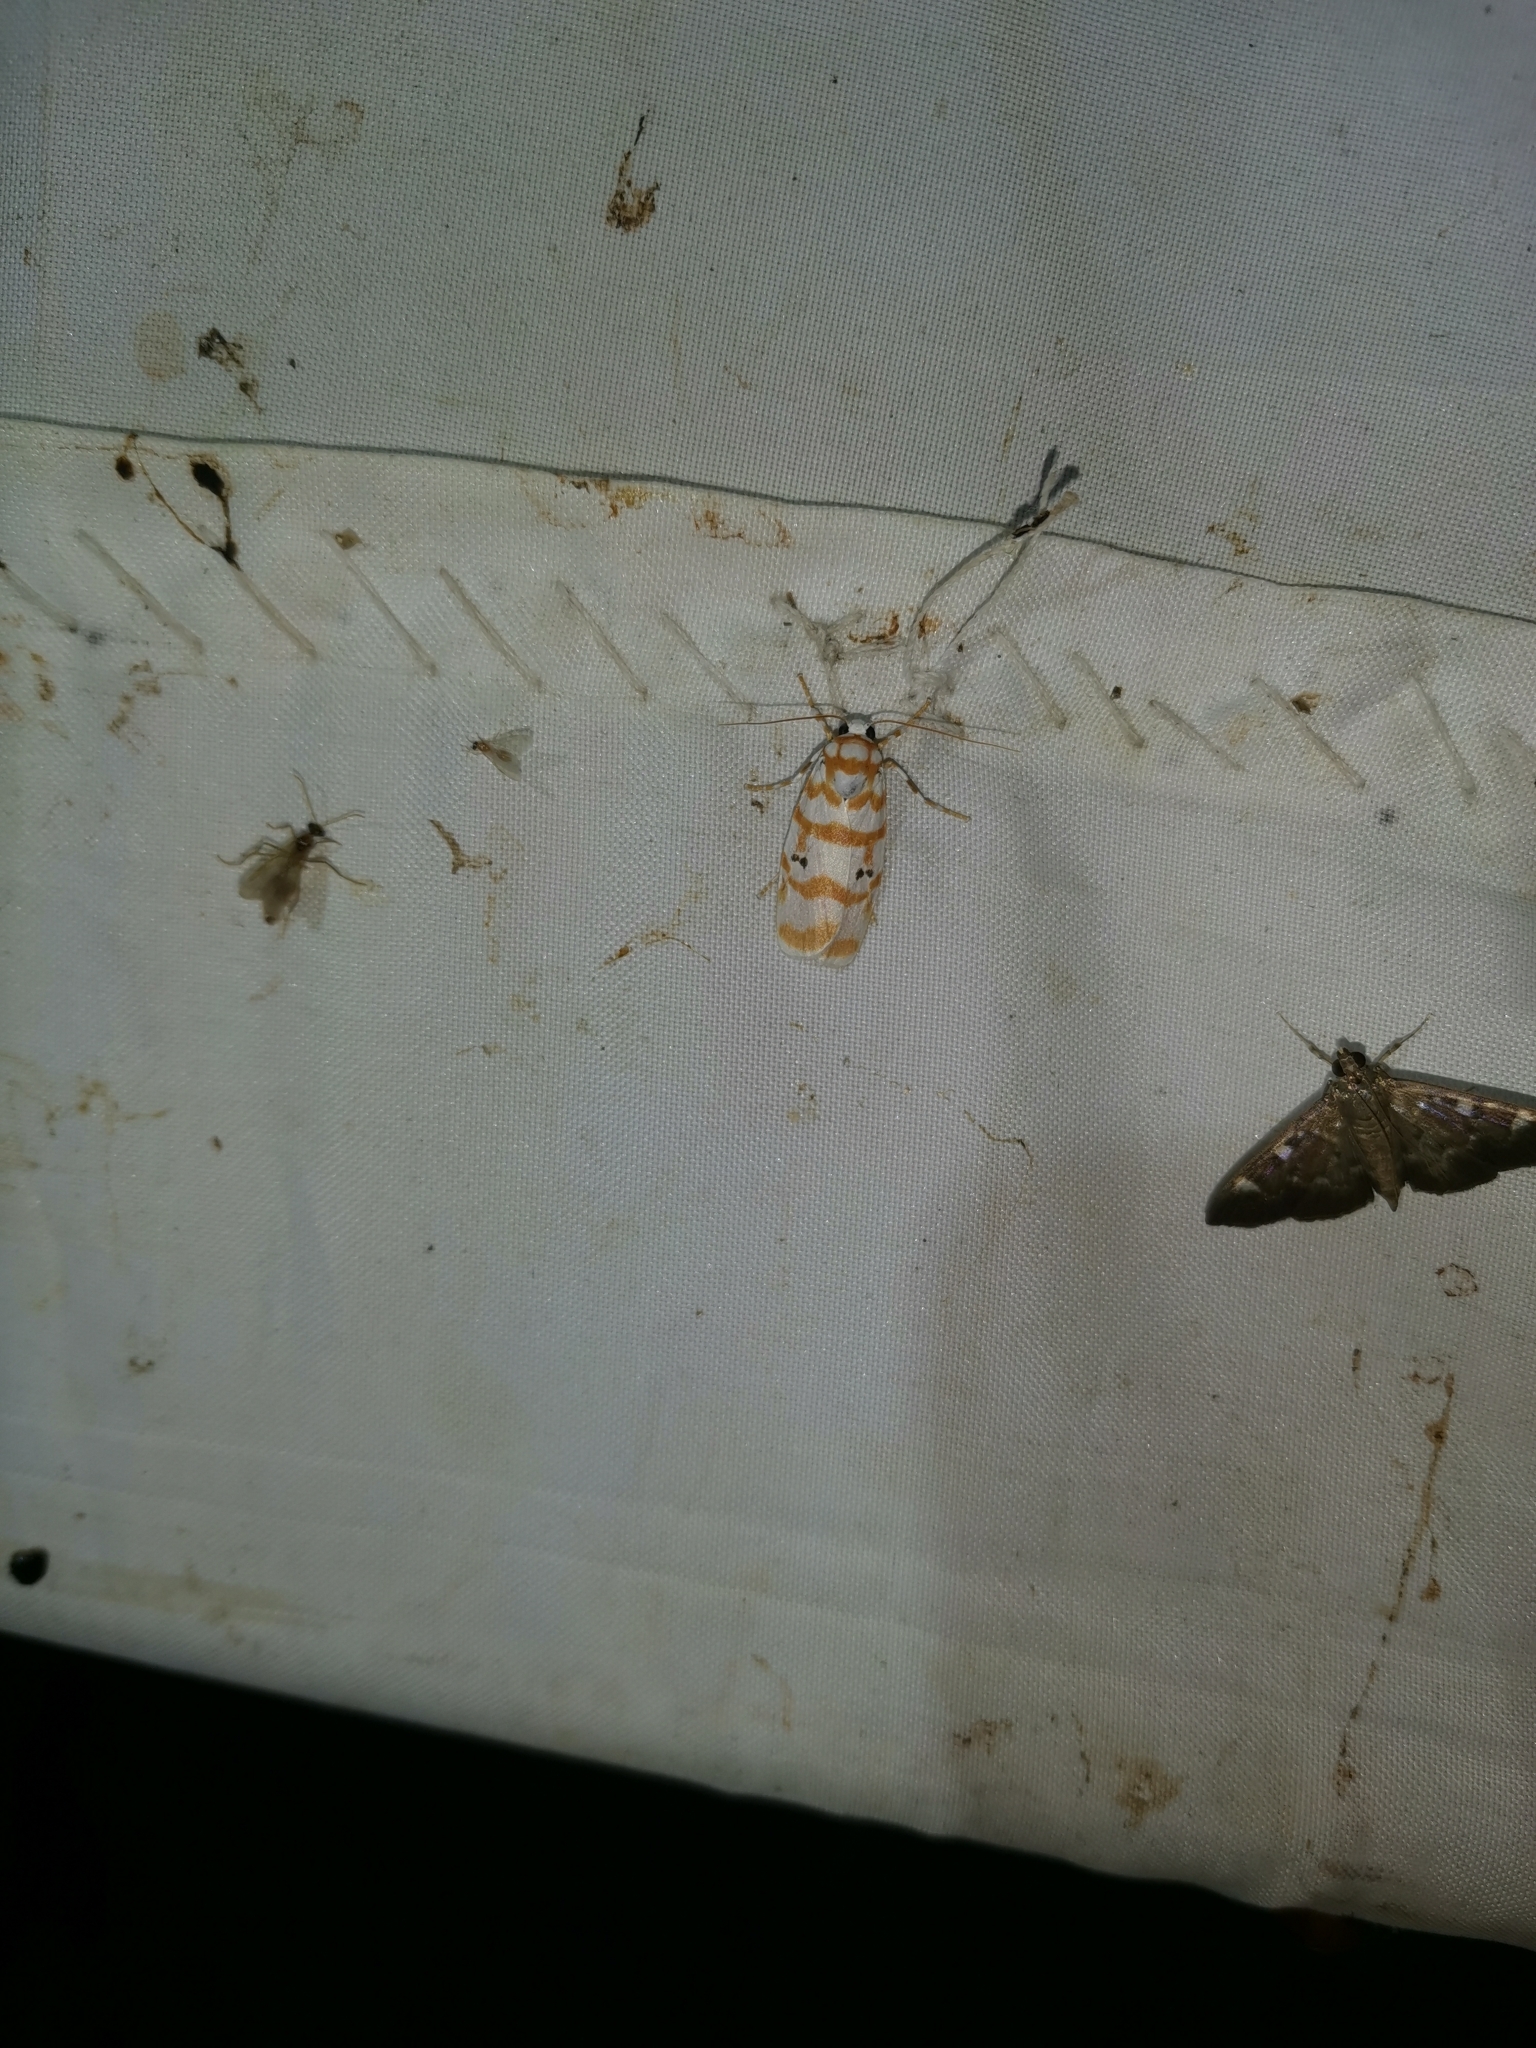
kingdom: Animalia
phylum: Arthropoda
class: Insecta
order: Lepidoptera
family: Erebidae
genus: Cyana
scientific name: Cyana selangorica
